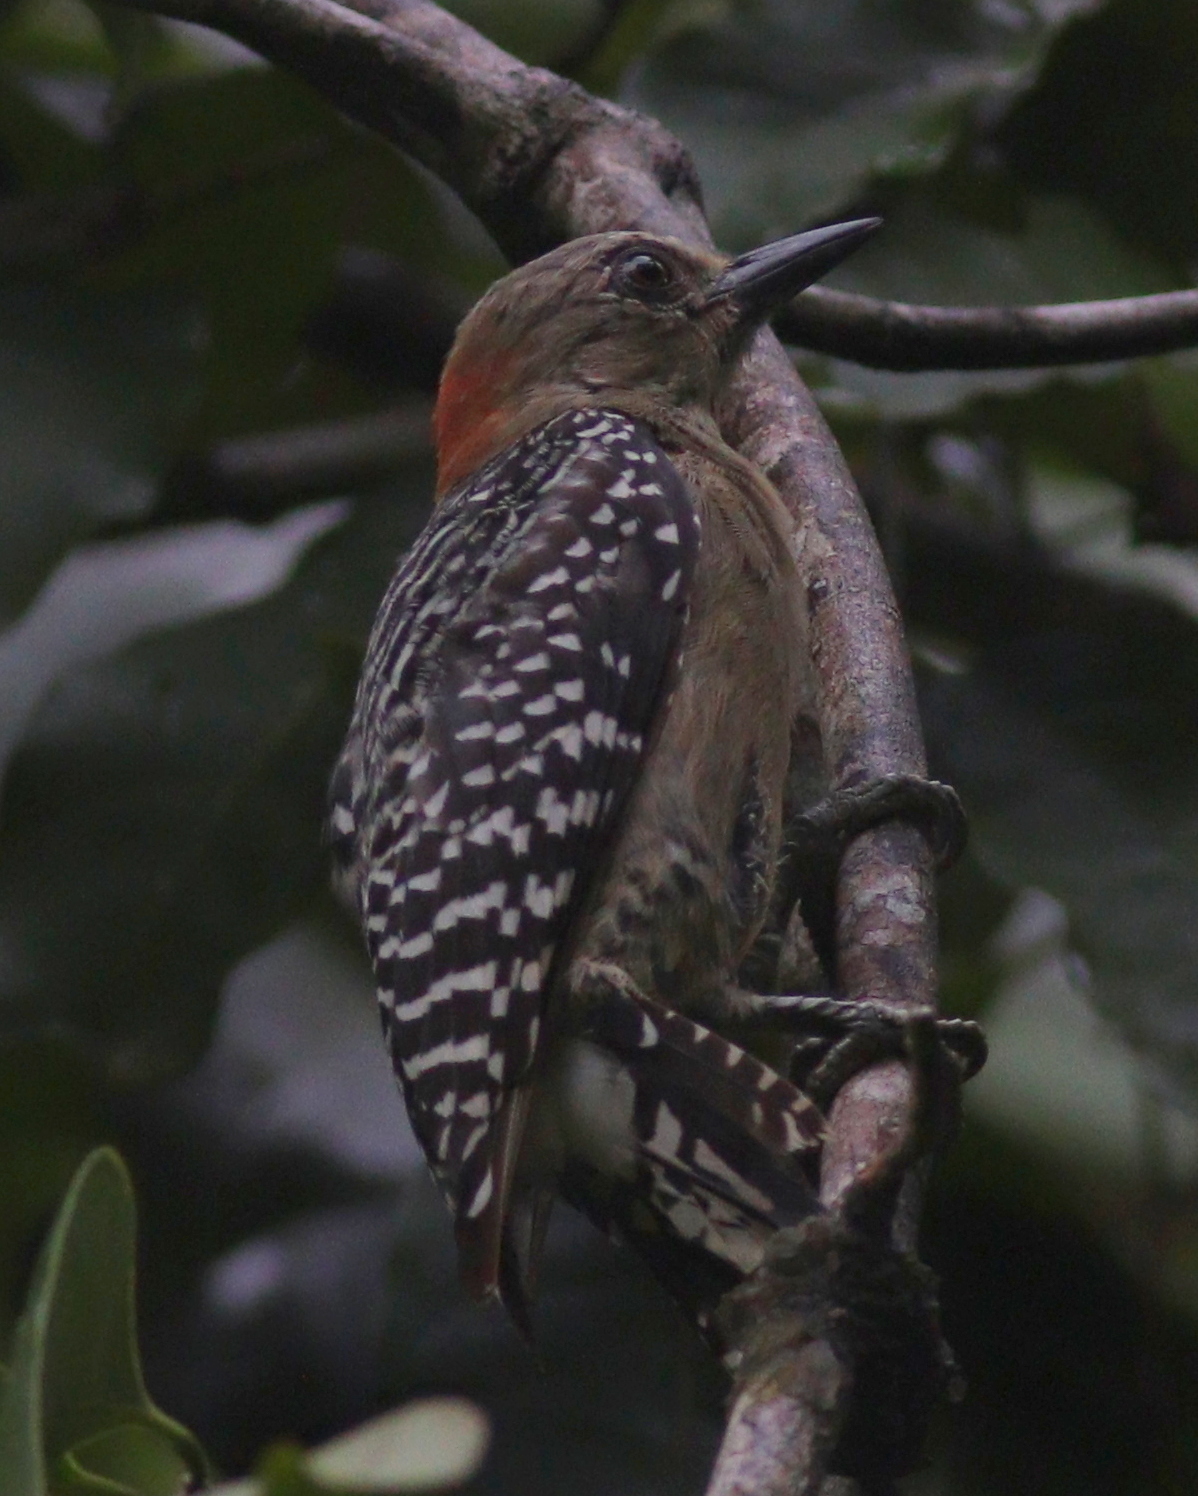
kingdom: Animalia
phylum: Chordata
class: Aves
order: Piciformes
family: Picidae
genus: Melanerpes
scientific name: Melanerpes rubricapillus
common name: Red-crowned woodpecker
